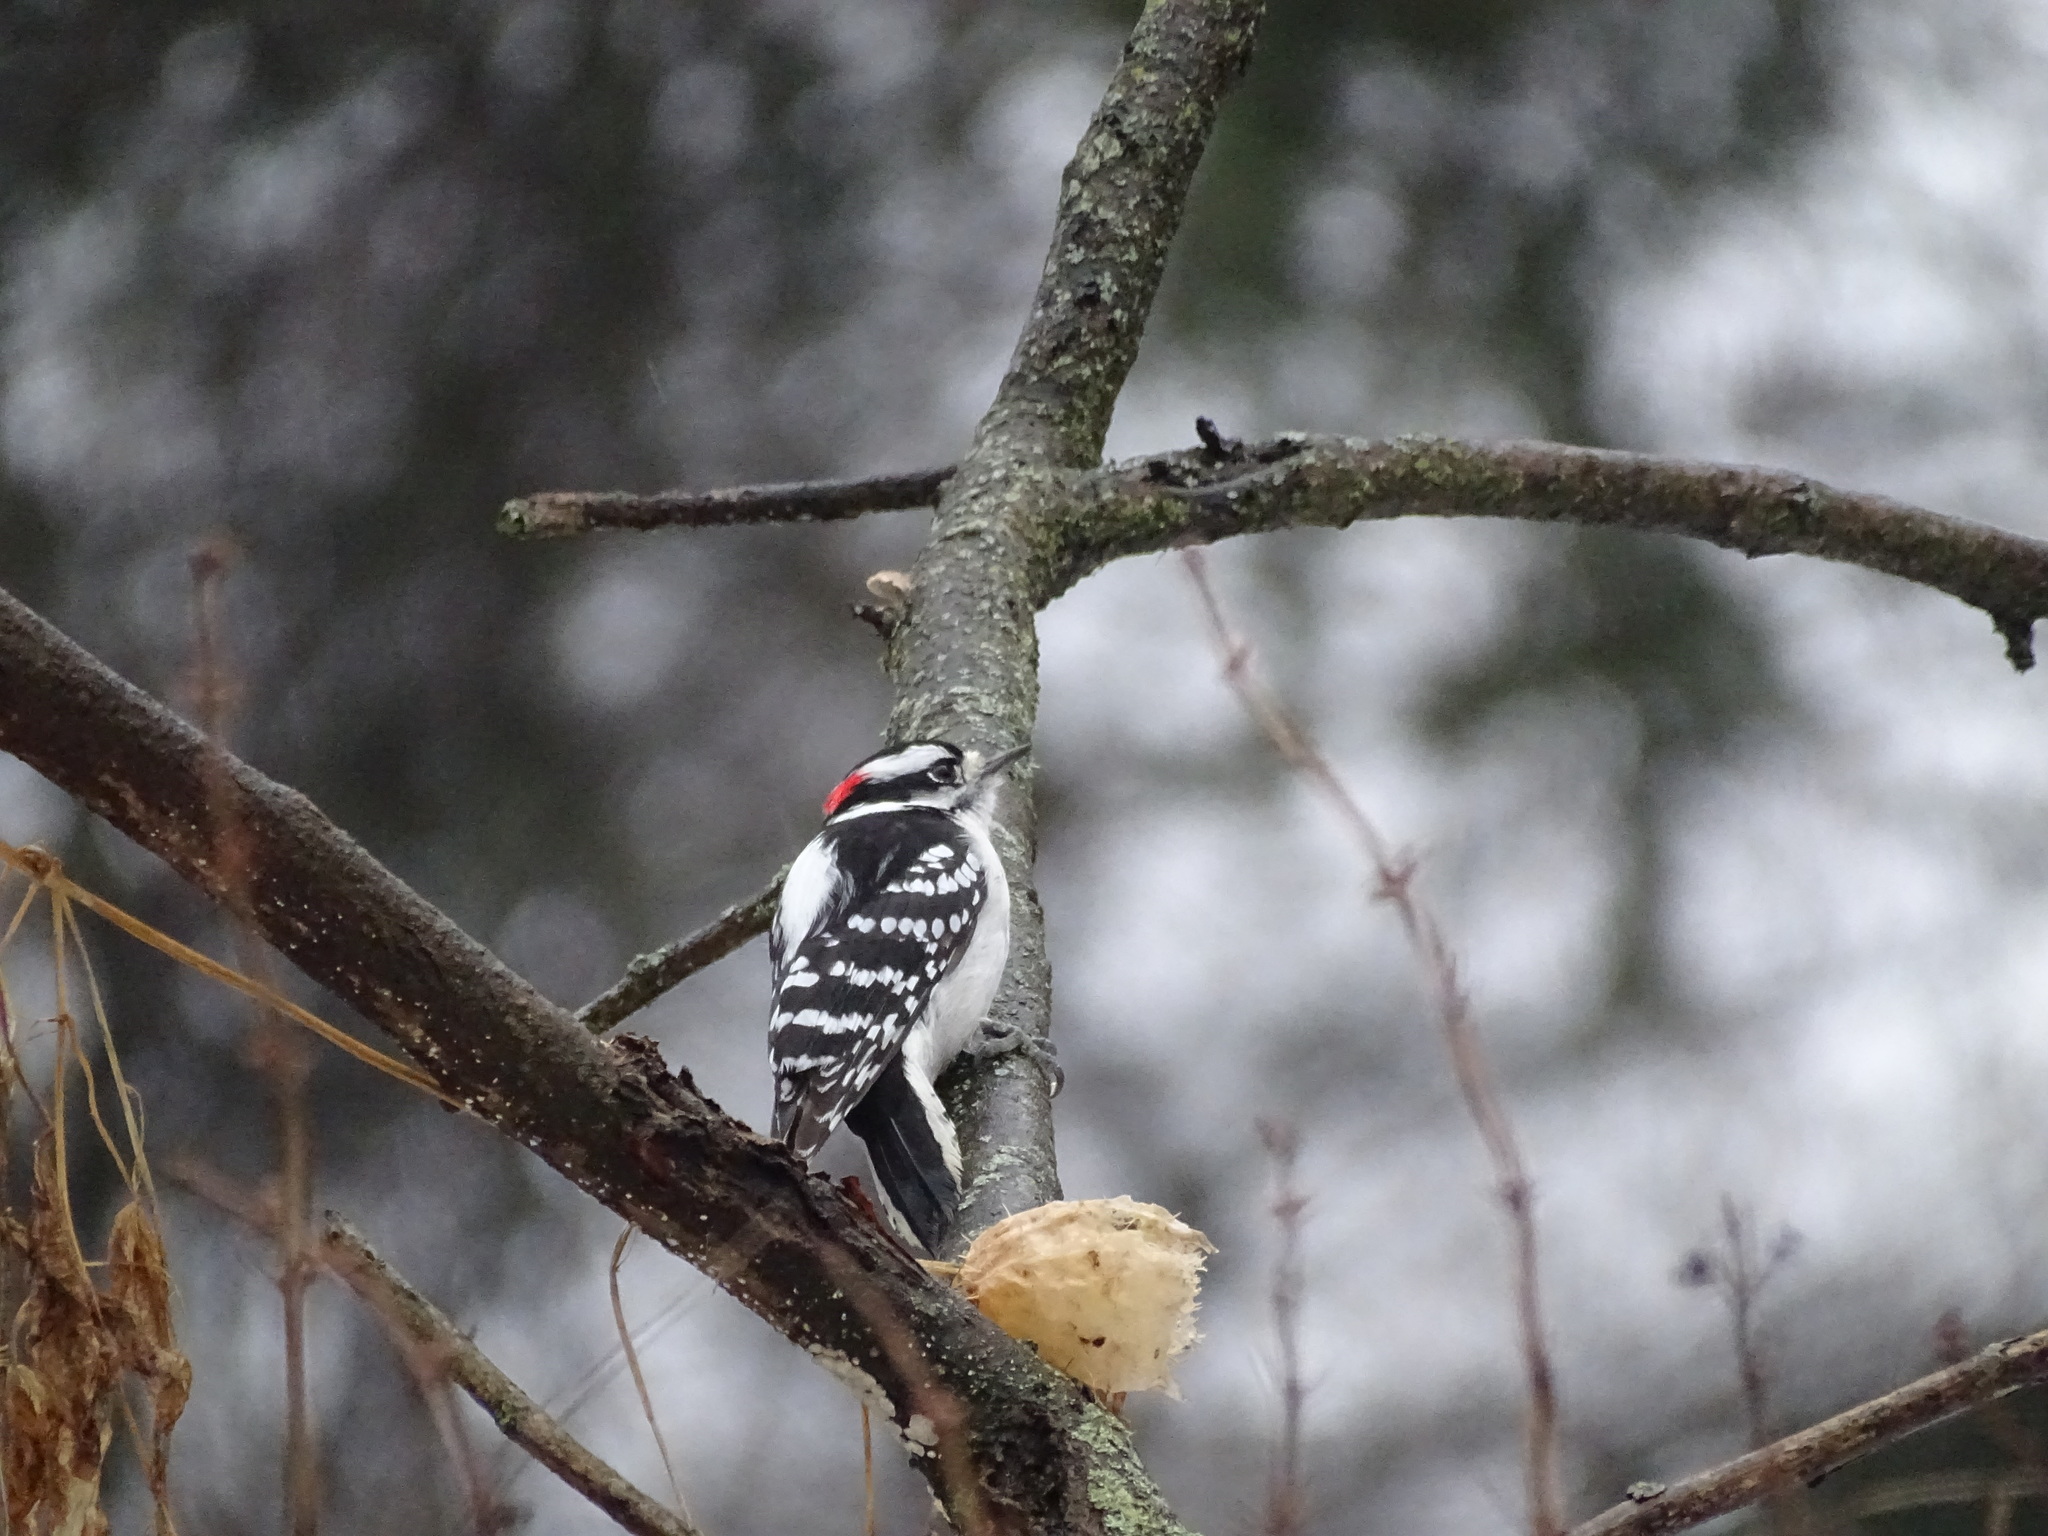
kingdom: Animalia
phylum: Chordata
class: Aves
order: Piciformes
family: Picidae
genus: Dryobates
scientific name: Dryobates pubescens
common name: Downy woodpecker
